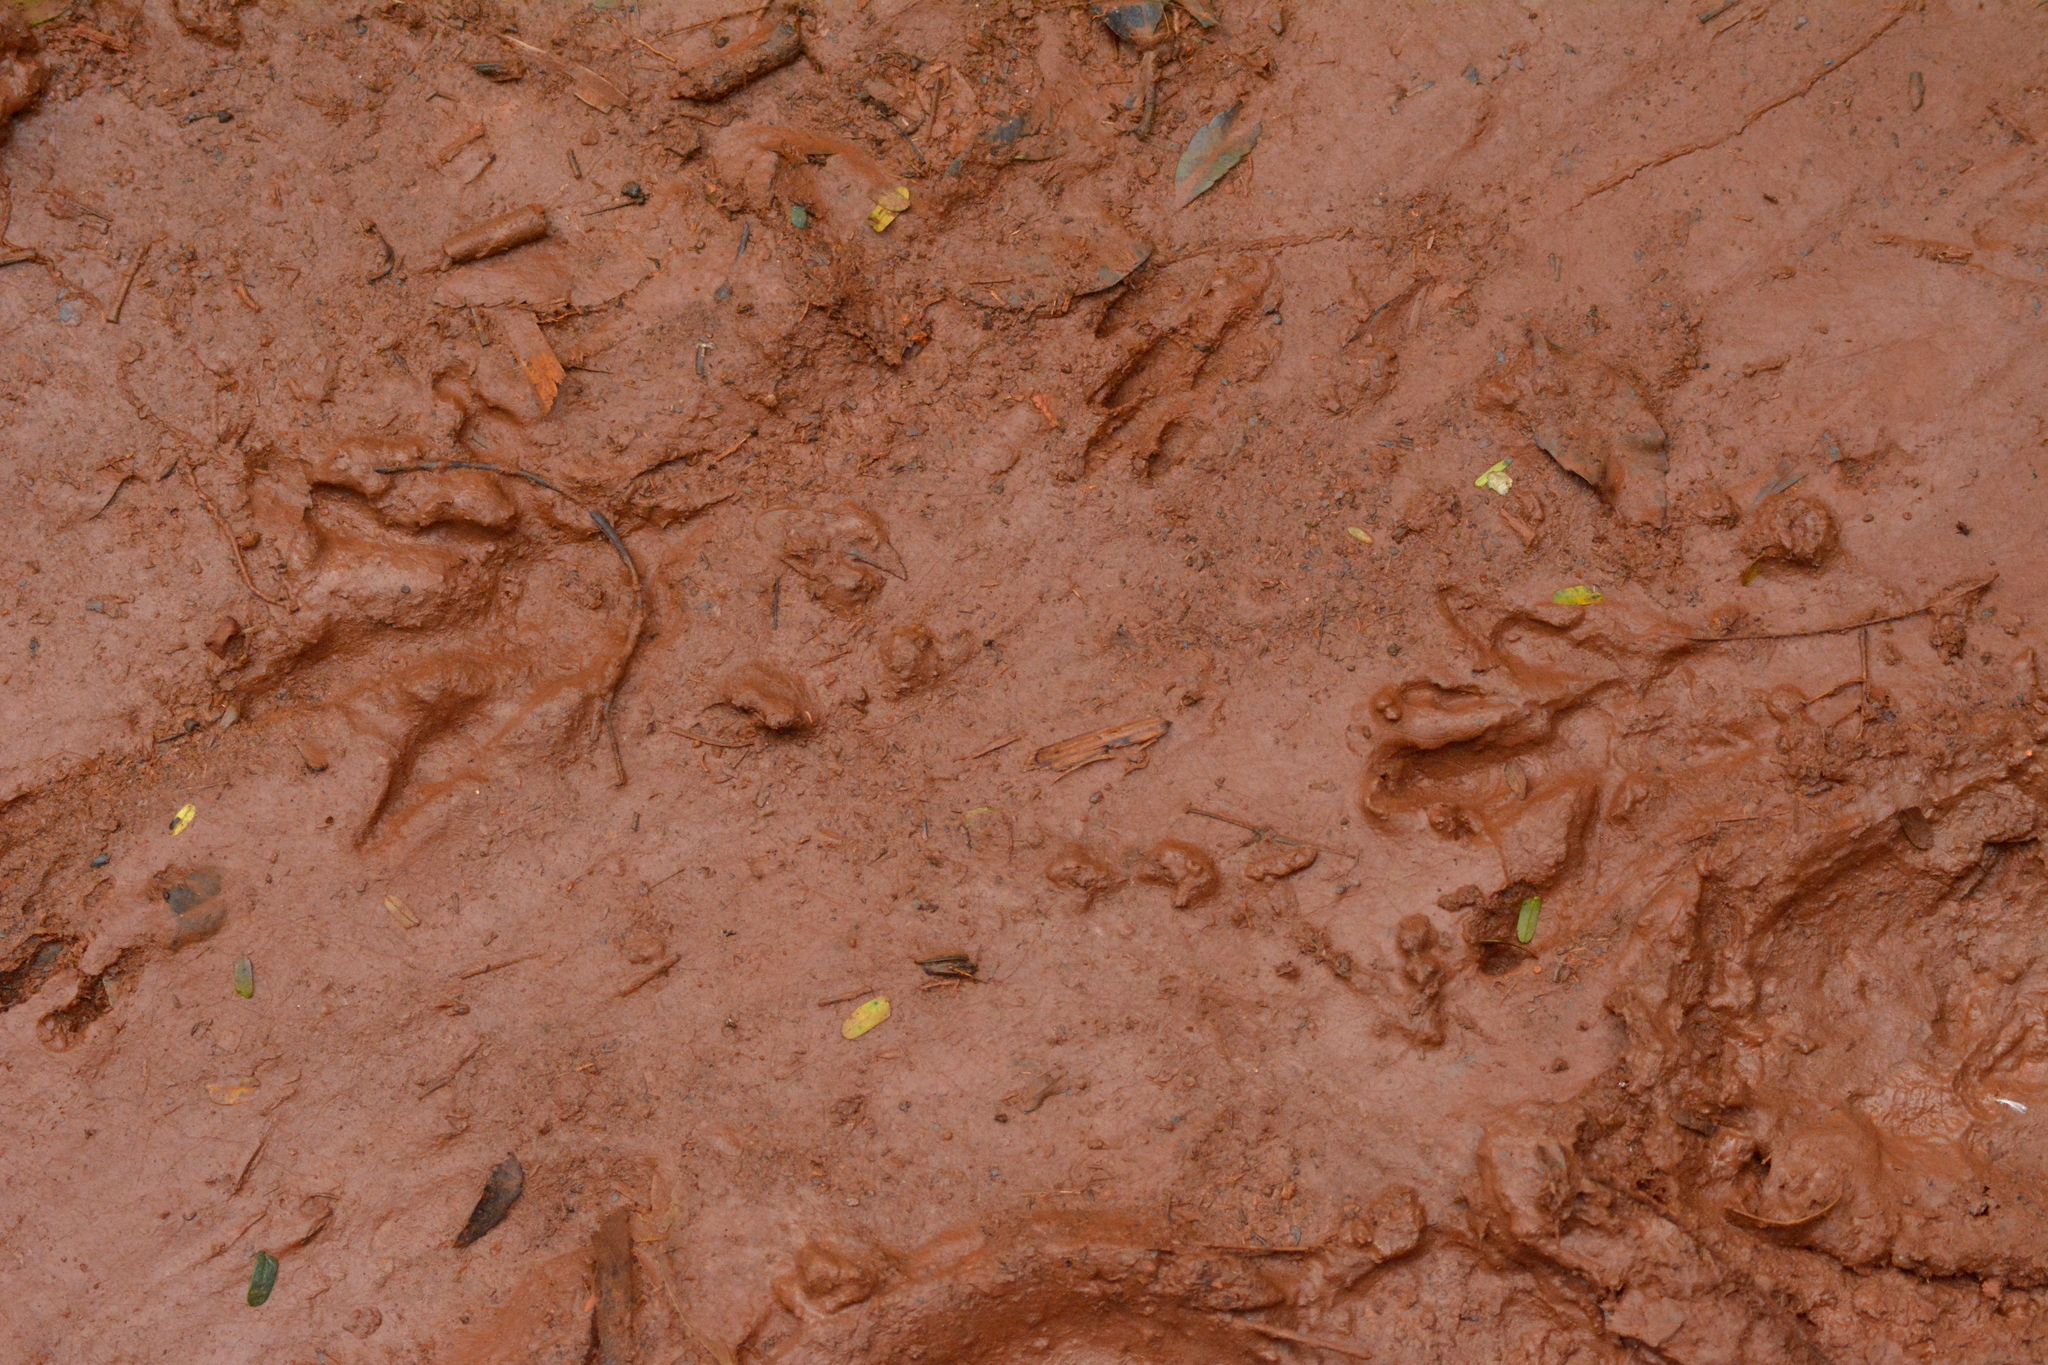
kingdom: Animalia
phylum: Chordata
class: Mammalia
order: Carnivora
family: Procyonidae
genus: Procyon
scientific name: Procyon cancrivorus
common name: Crab-eating raccoon
